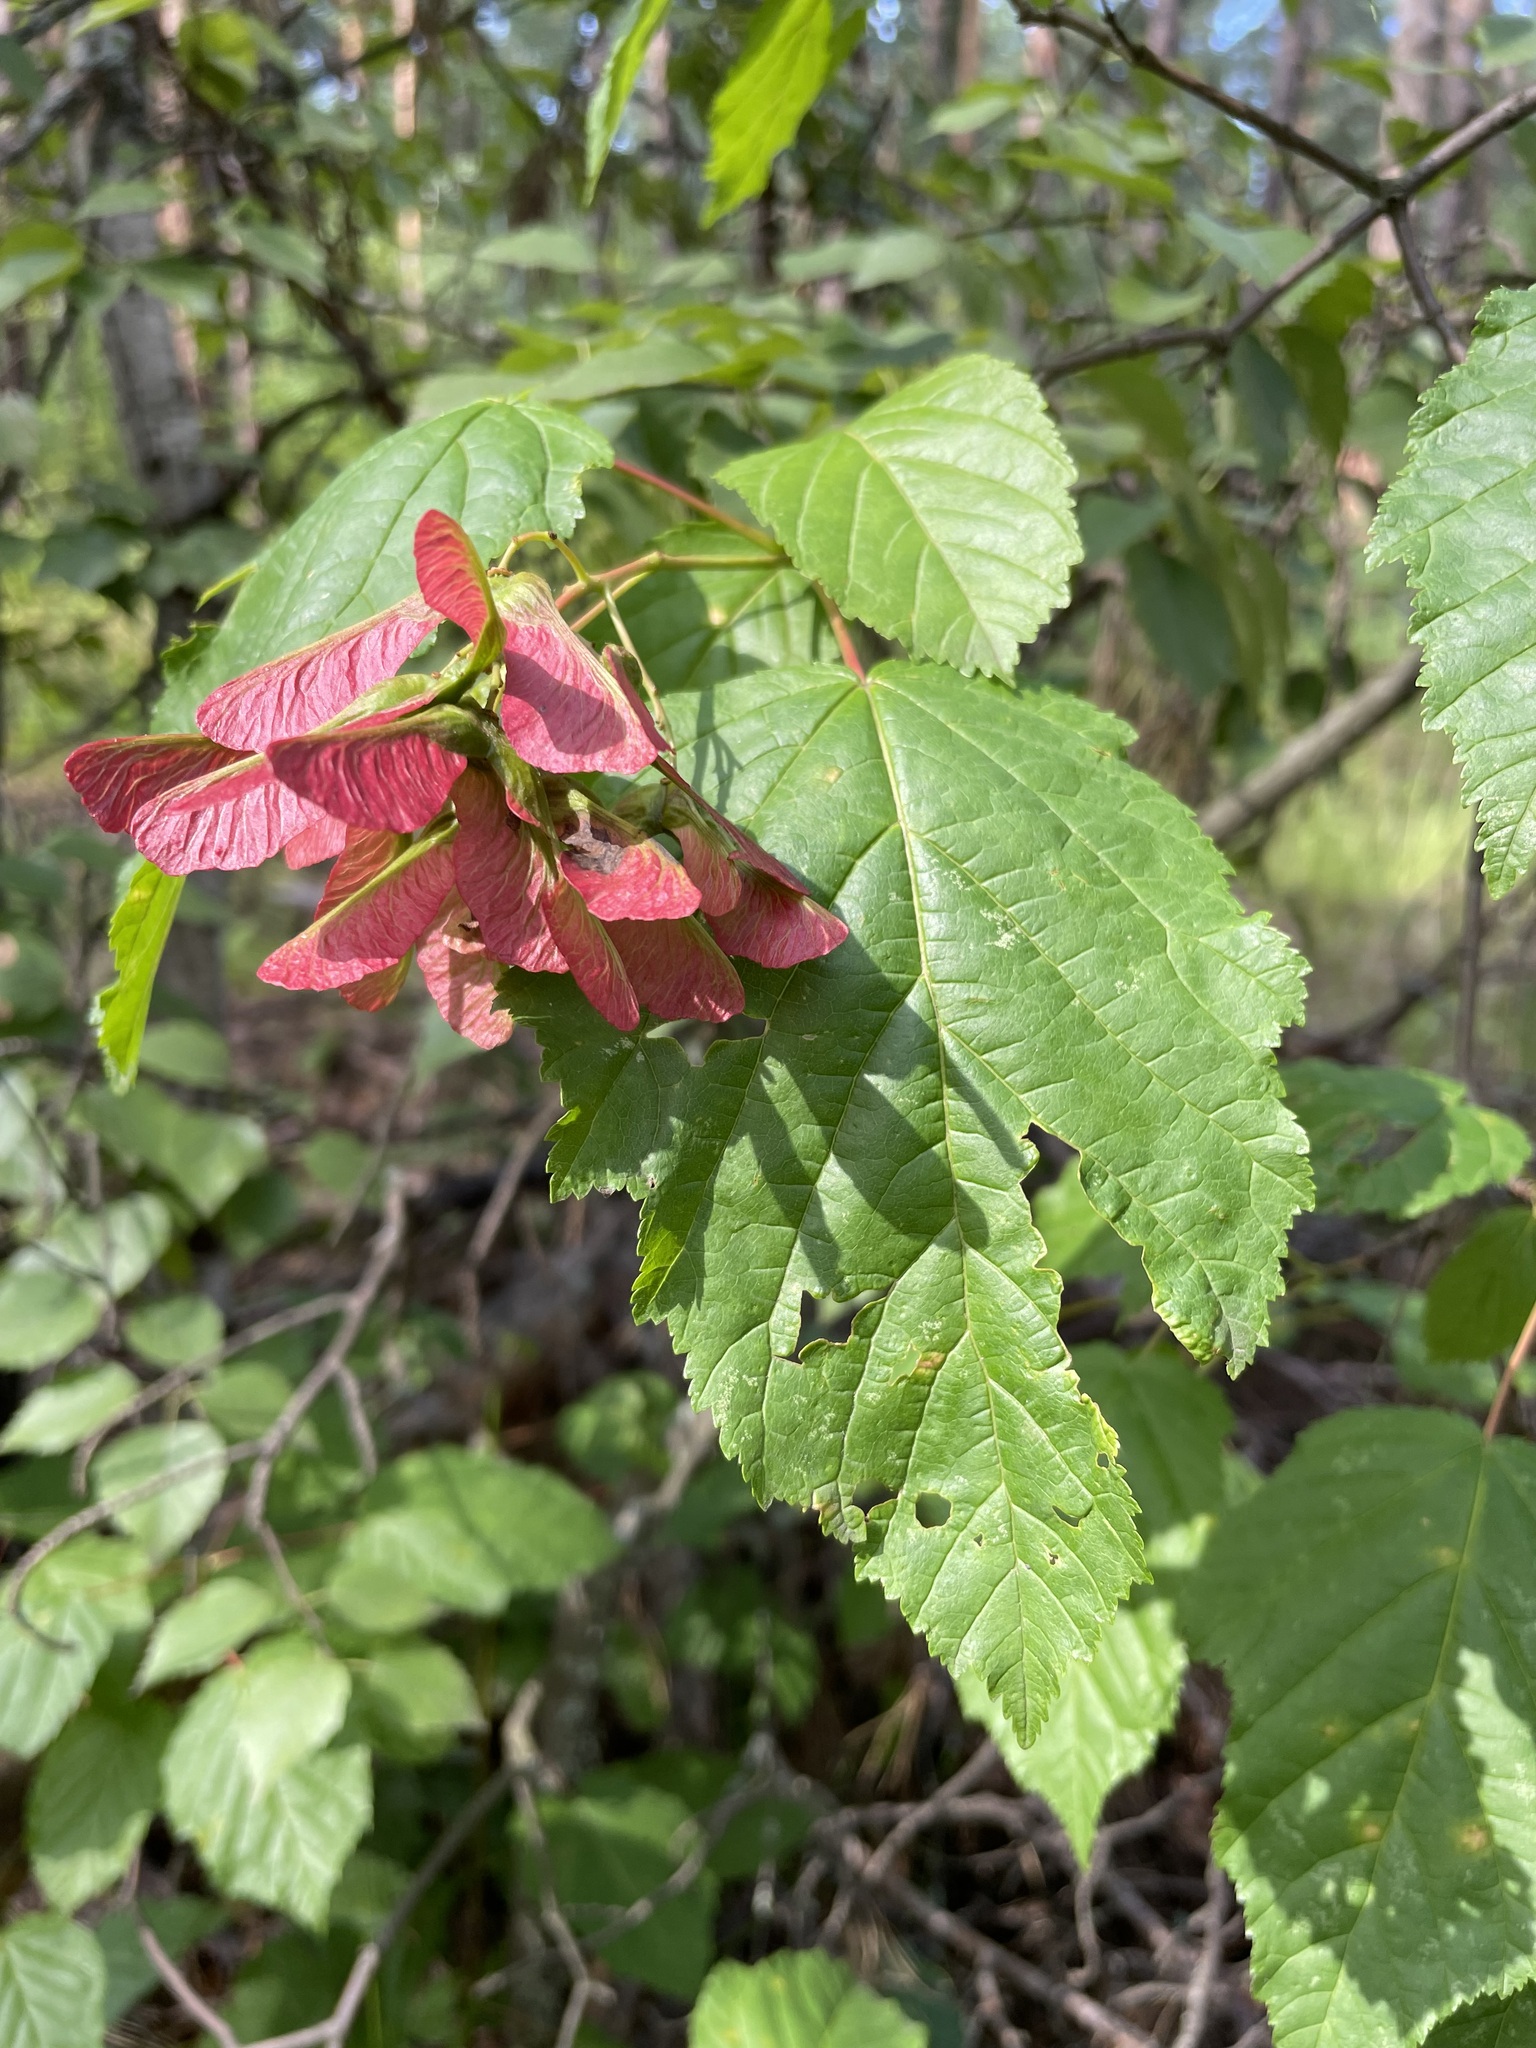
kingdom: Plantae
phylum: Tracheophyta
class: Magnoliopsida
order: Sapindales
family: Sapindaceae
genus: Acer
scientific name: Acer tataricum
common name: Tartar maple
